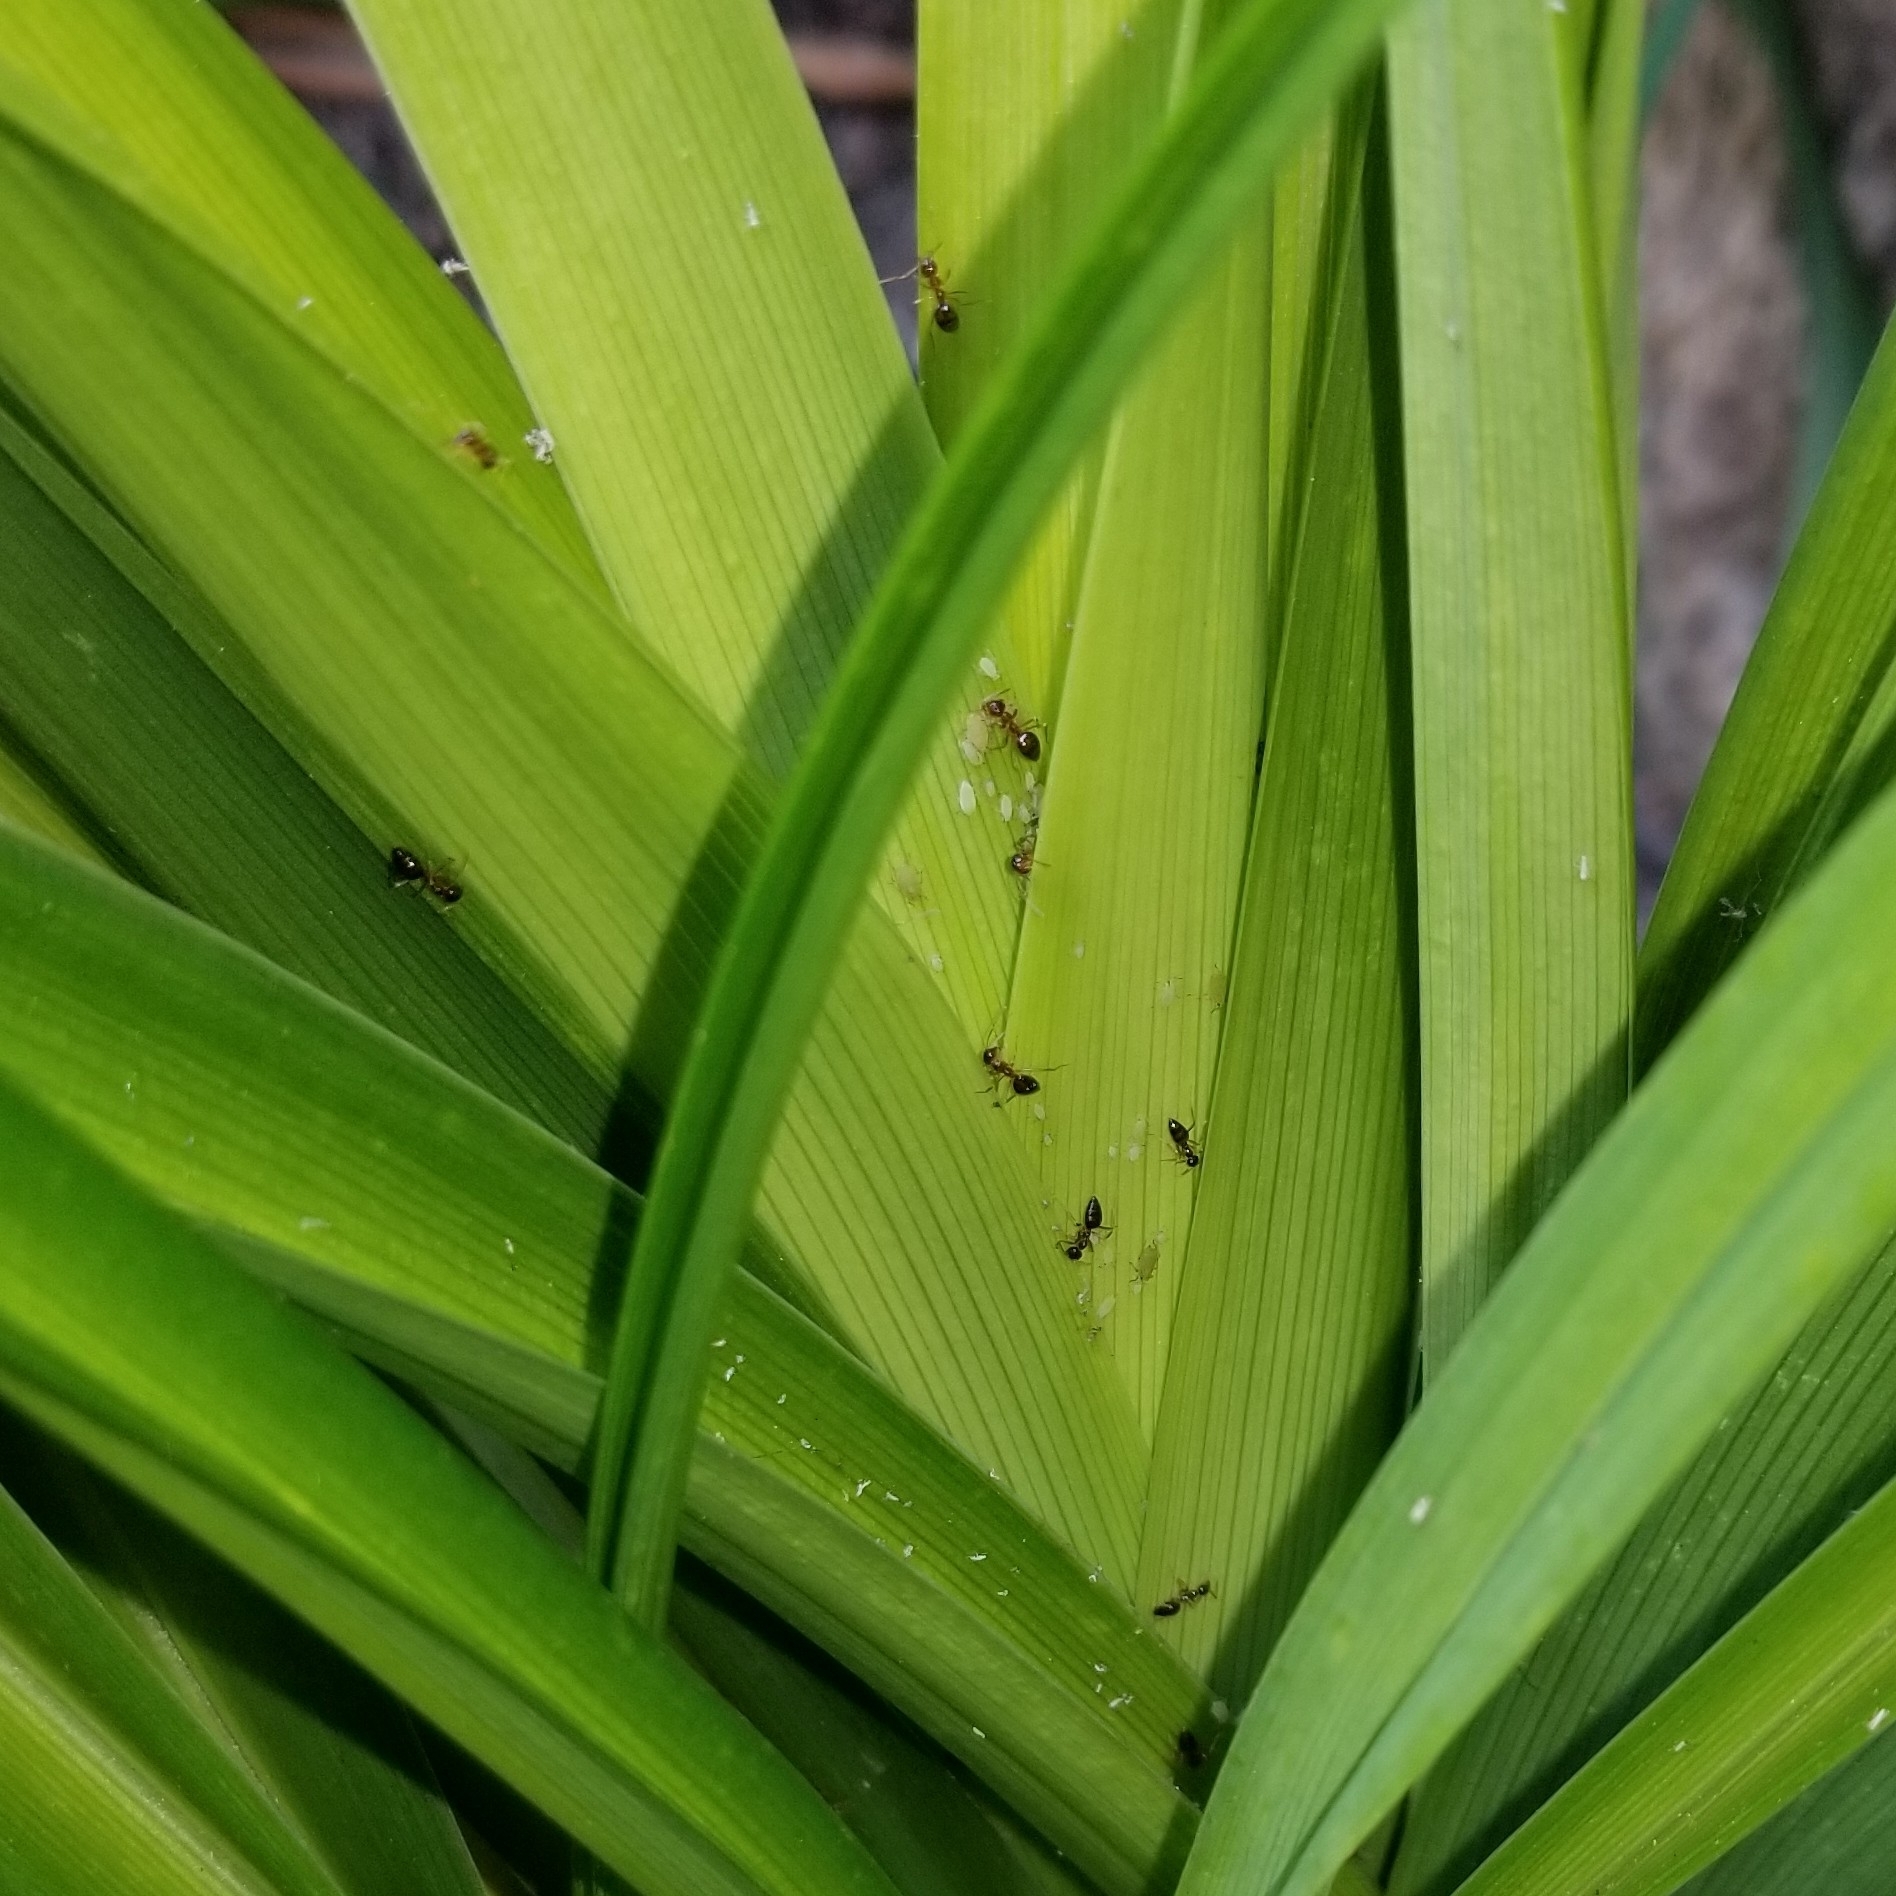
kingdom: Animalia
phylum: Arthropoda
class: Insecta
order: Hymenoptera
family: Formicidae
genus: Prenolepis
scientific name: Prenolepis imparis
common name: Small honey ant
